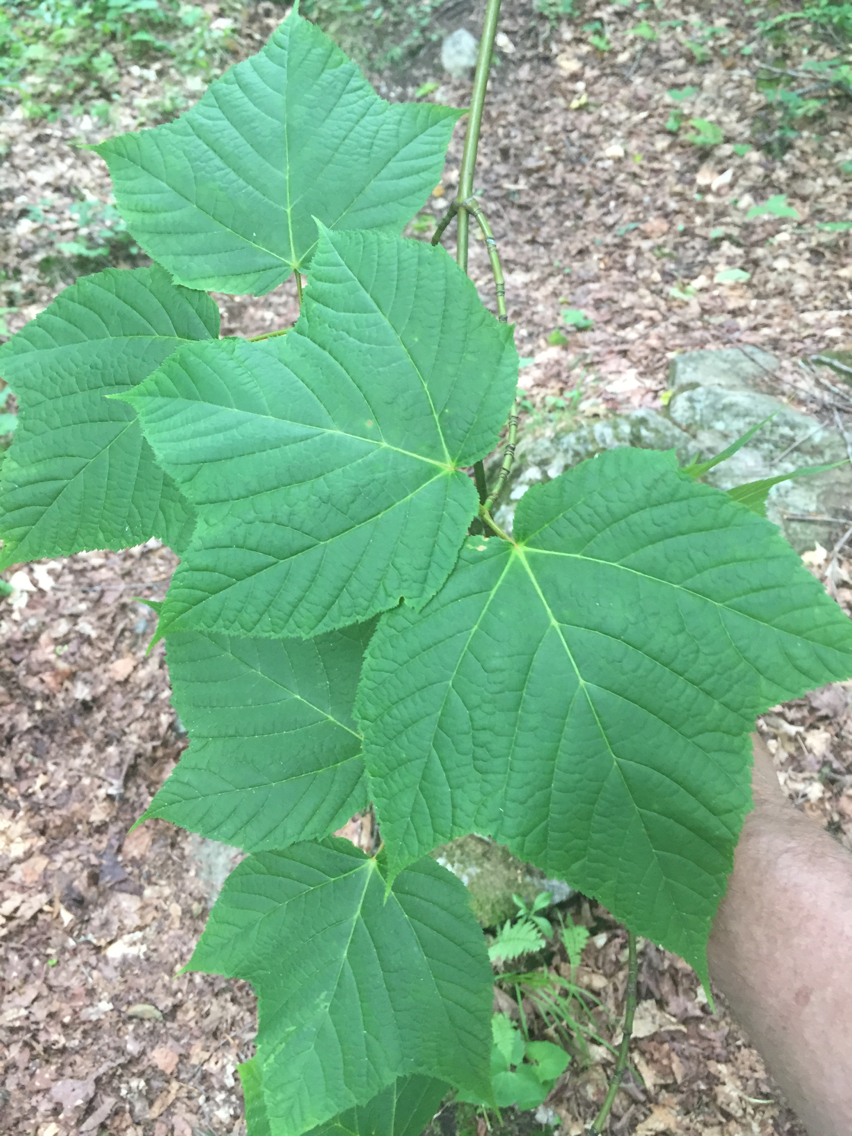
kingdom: Plantae
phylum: Tracheophyta
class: Magnoliopsida
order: Sapindales
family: Sapindaceae
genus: Acer
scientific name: Acer pensylvanicum
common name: Moosewood
